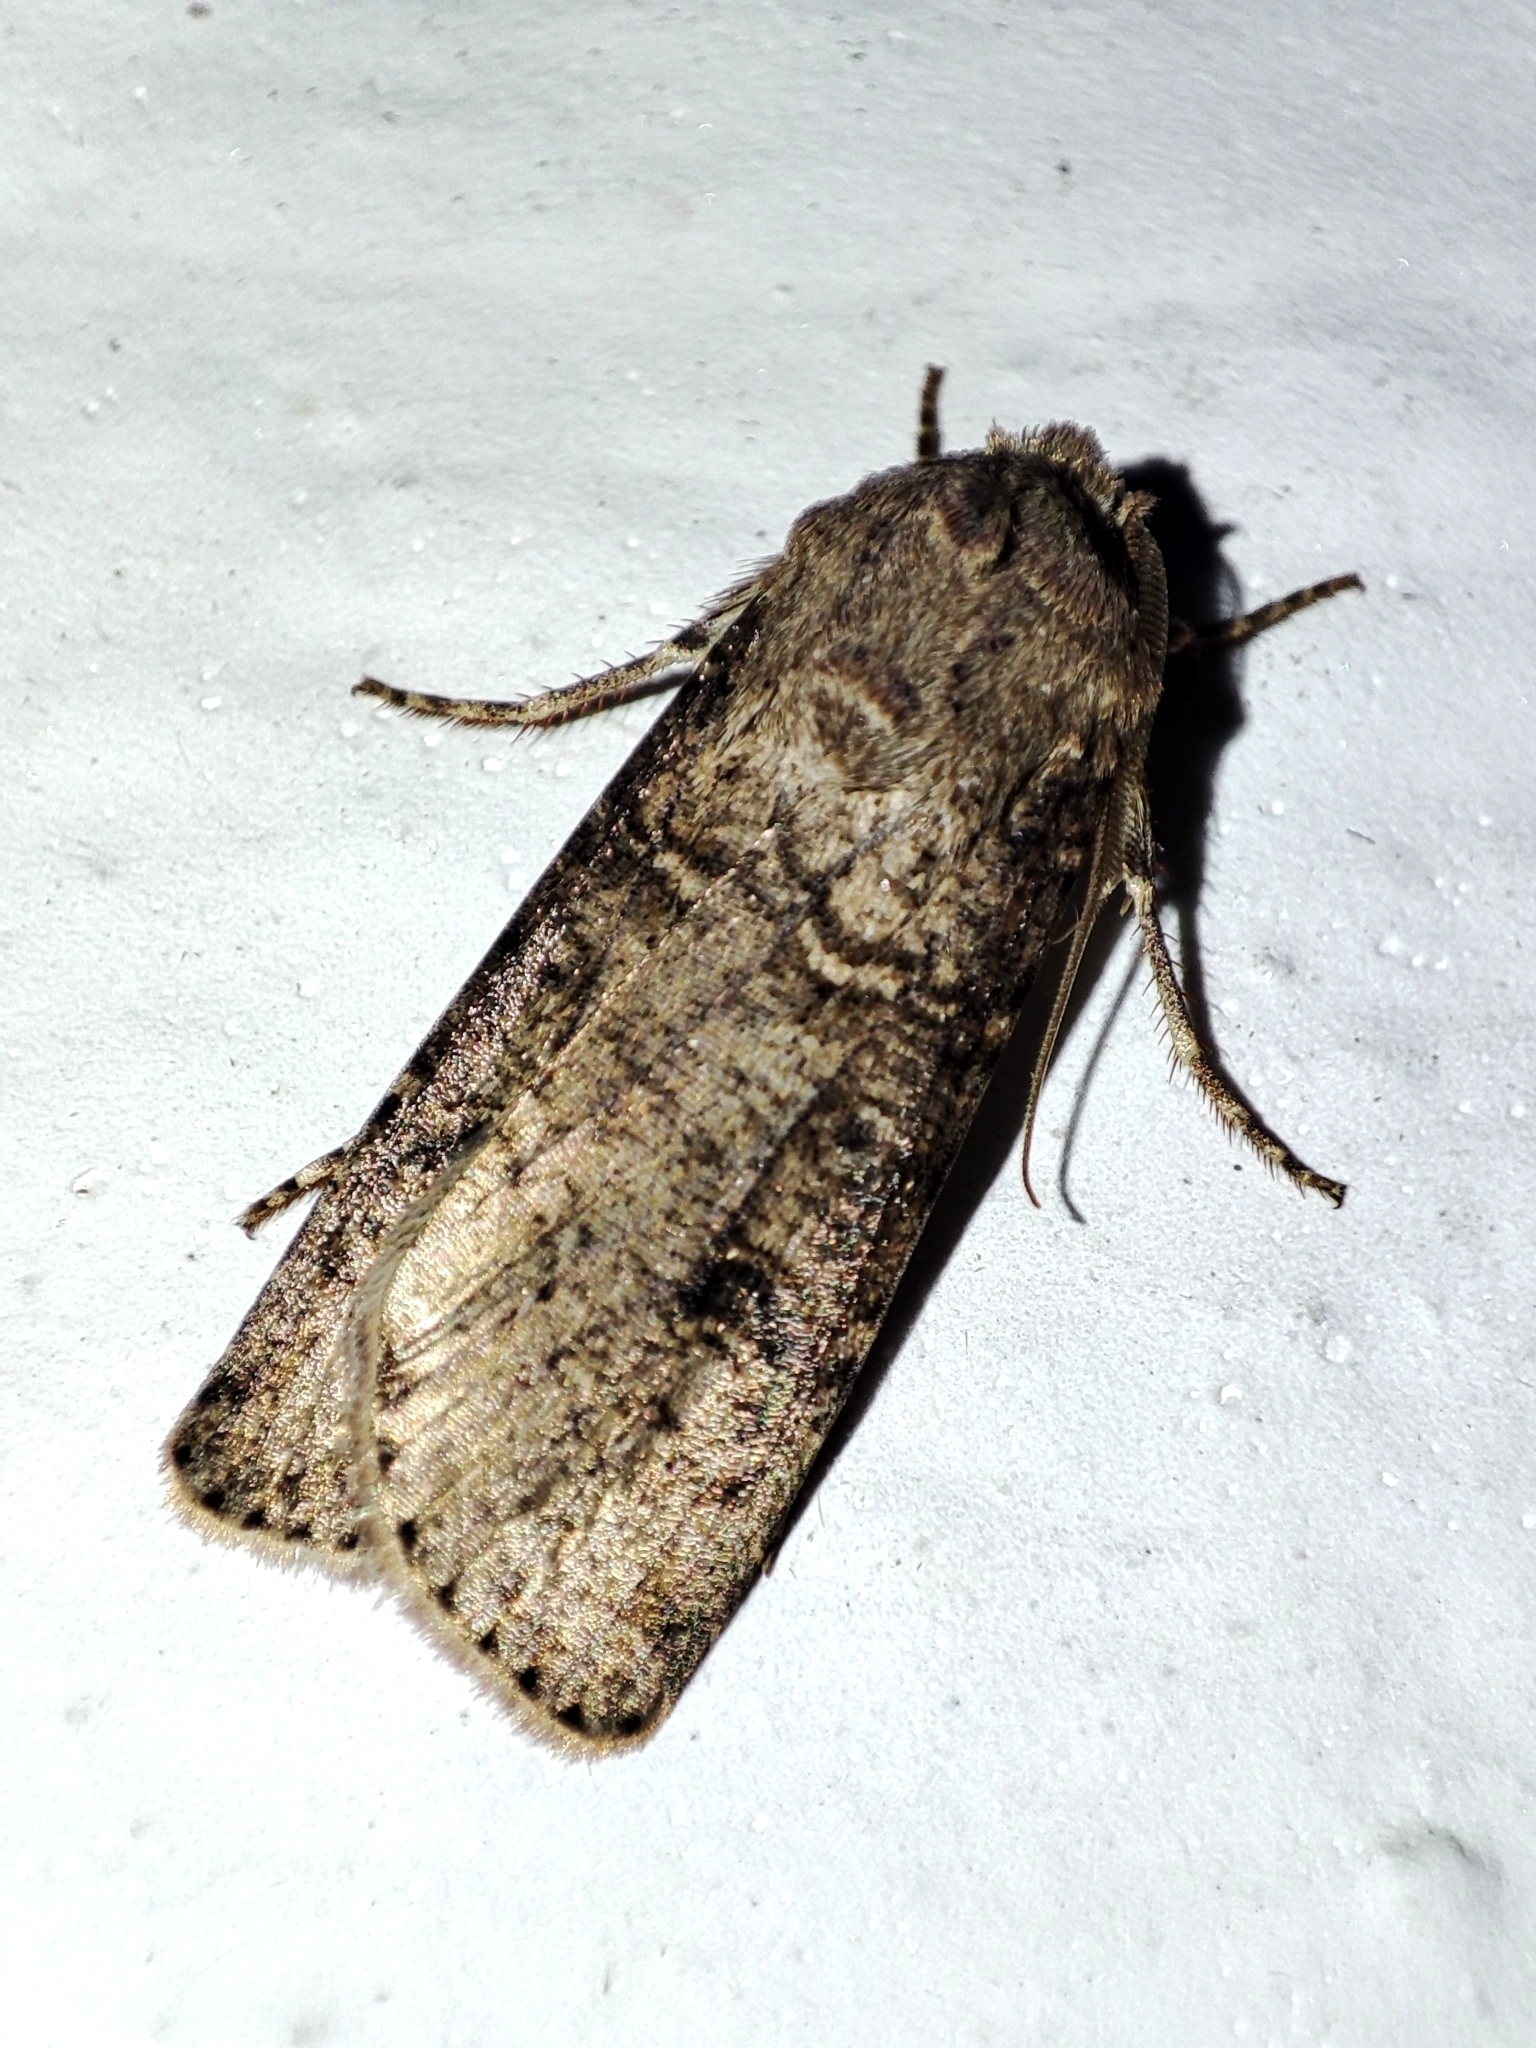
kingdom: Animalia
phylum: Arthropoda
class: Insecta
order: Lepidoptera
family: Noctuidae
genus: Agrotis
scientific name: Agrotis segetum
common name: Turnip moth
